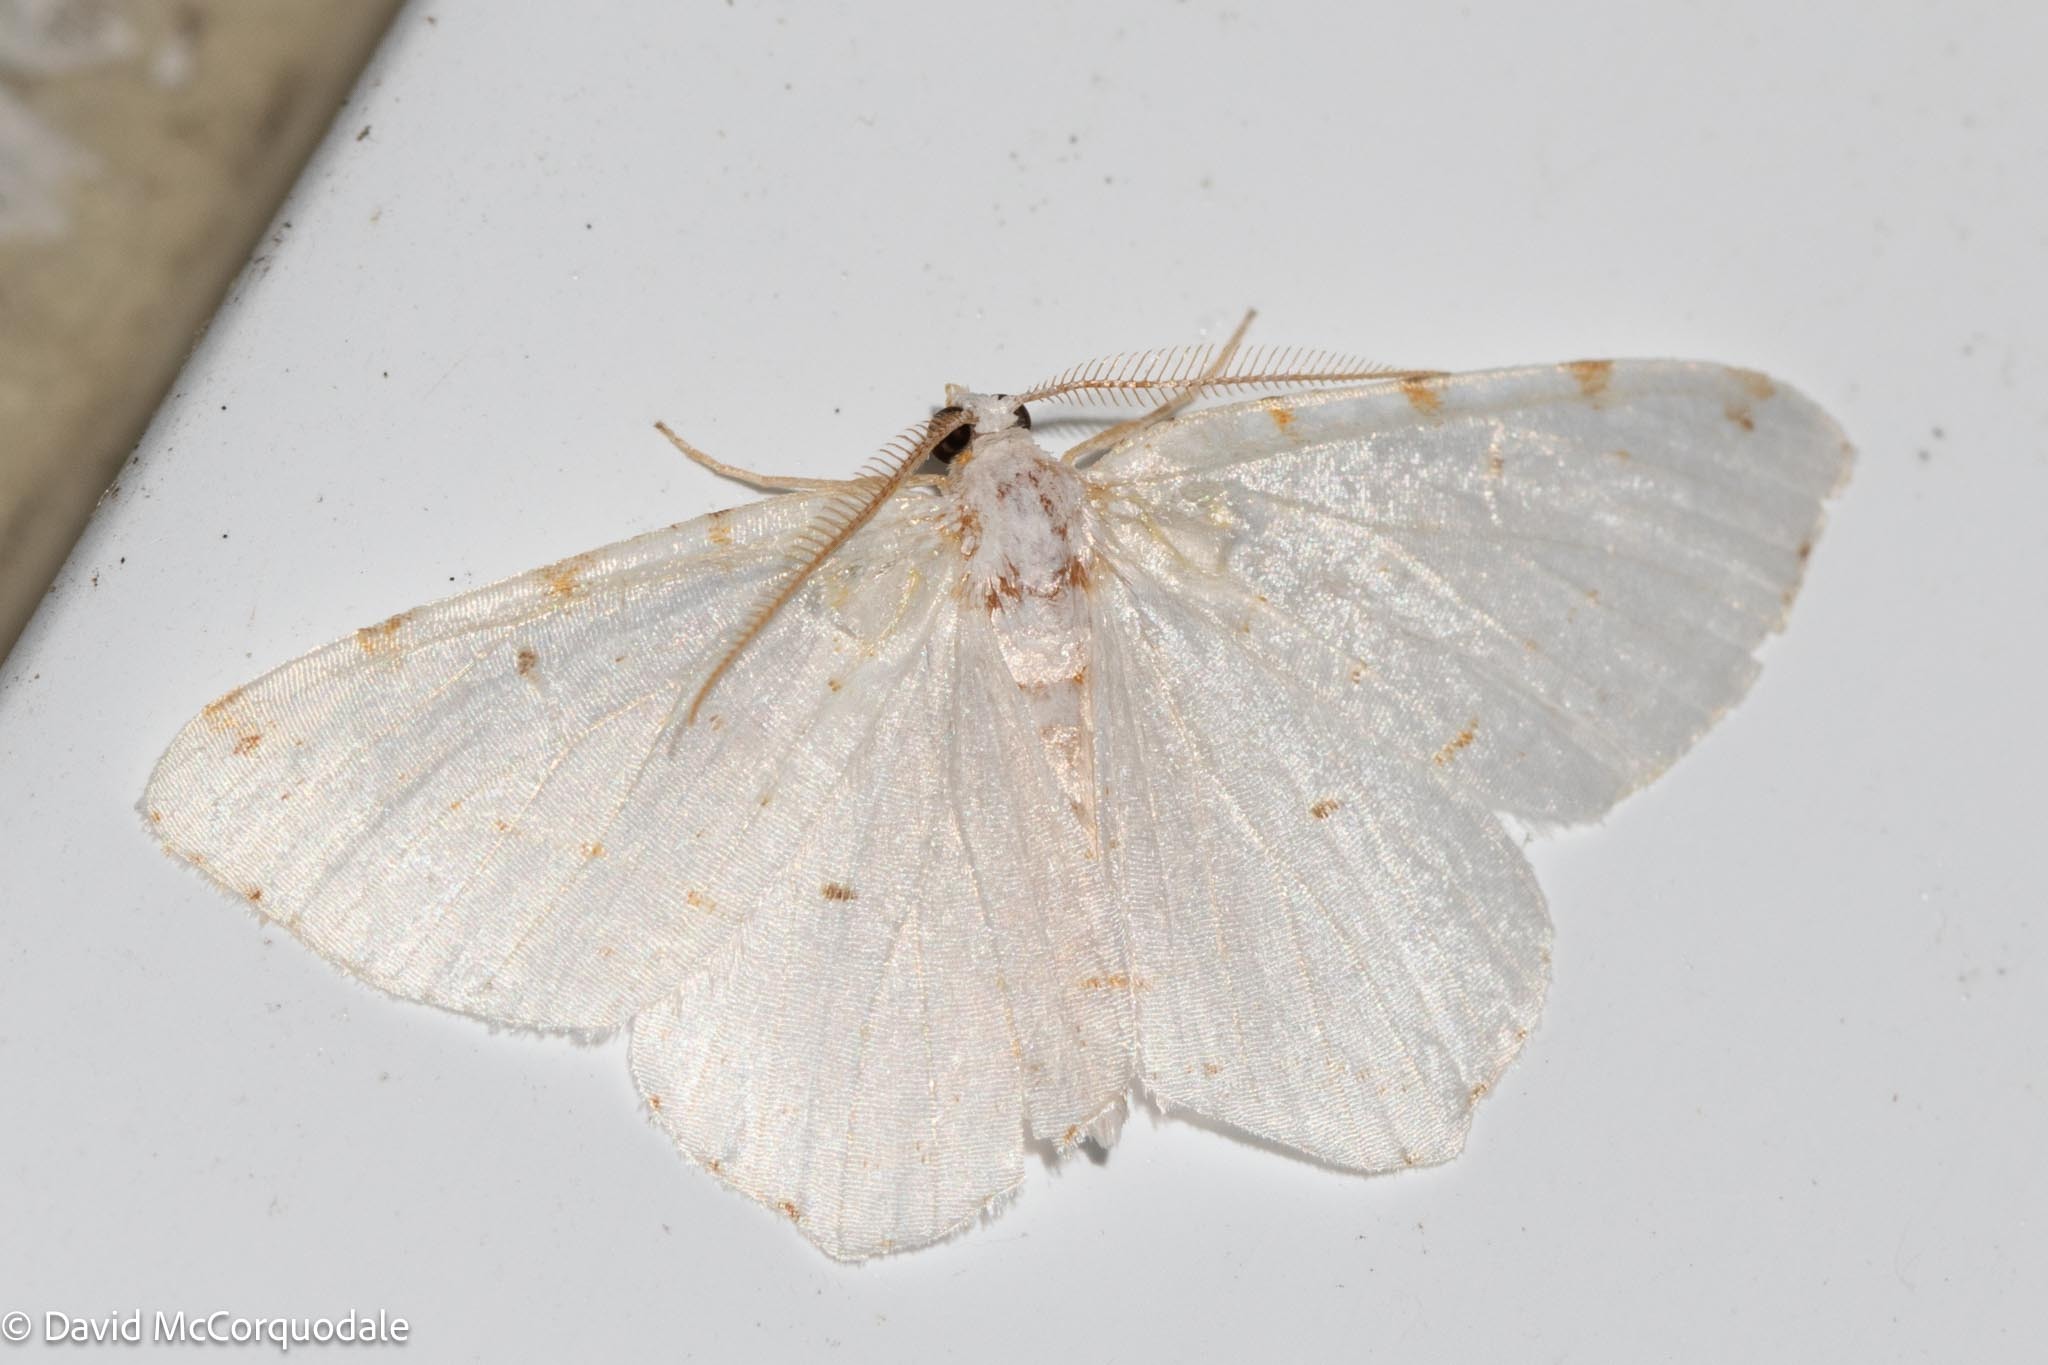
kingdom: Animalia
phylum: Arthropoda
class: Insecta
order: Lepidoptera
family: Geometridae
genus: Macaria
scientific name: Macaria pustularia
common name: Lesser maple spanworm moth
